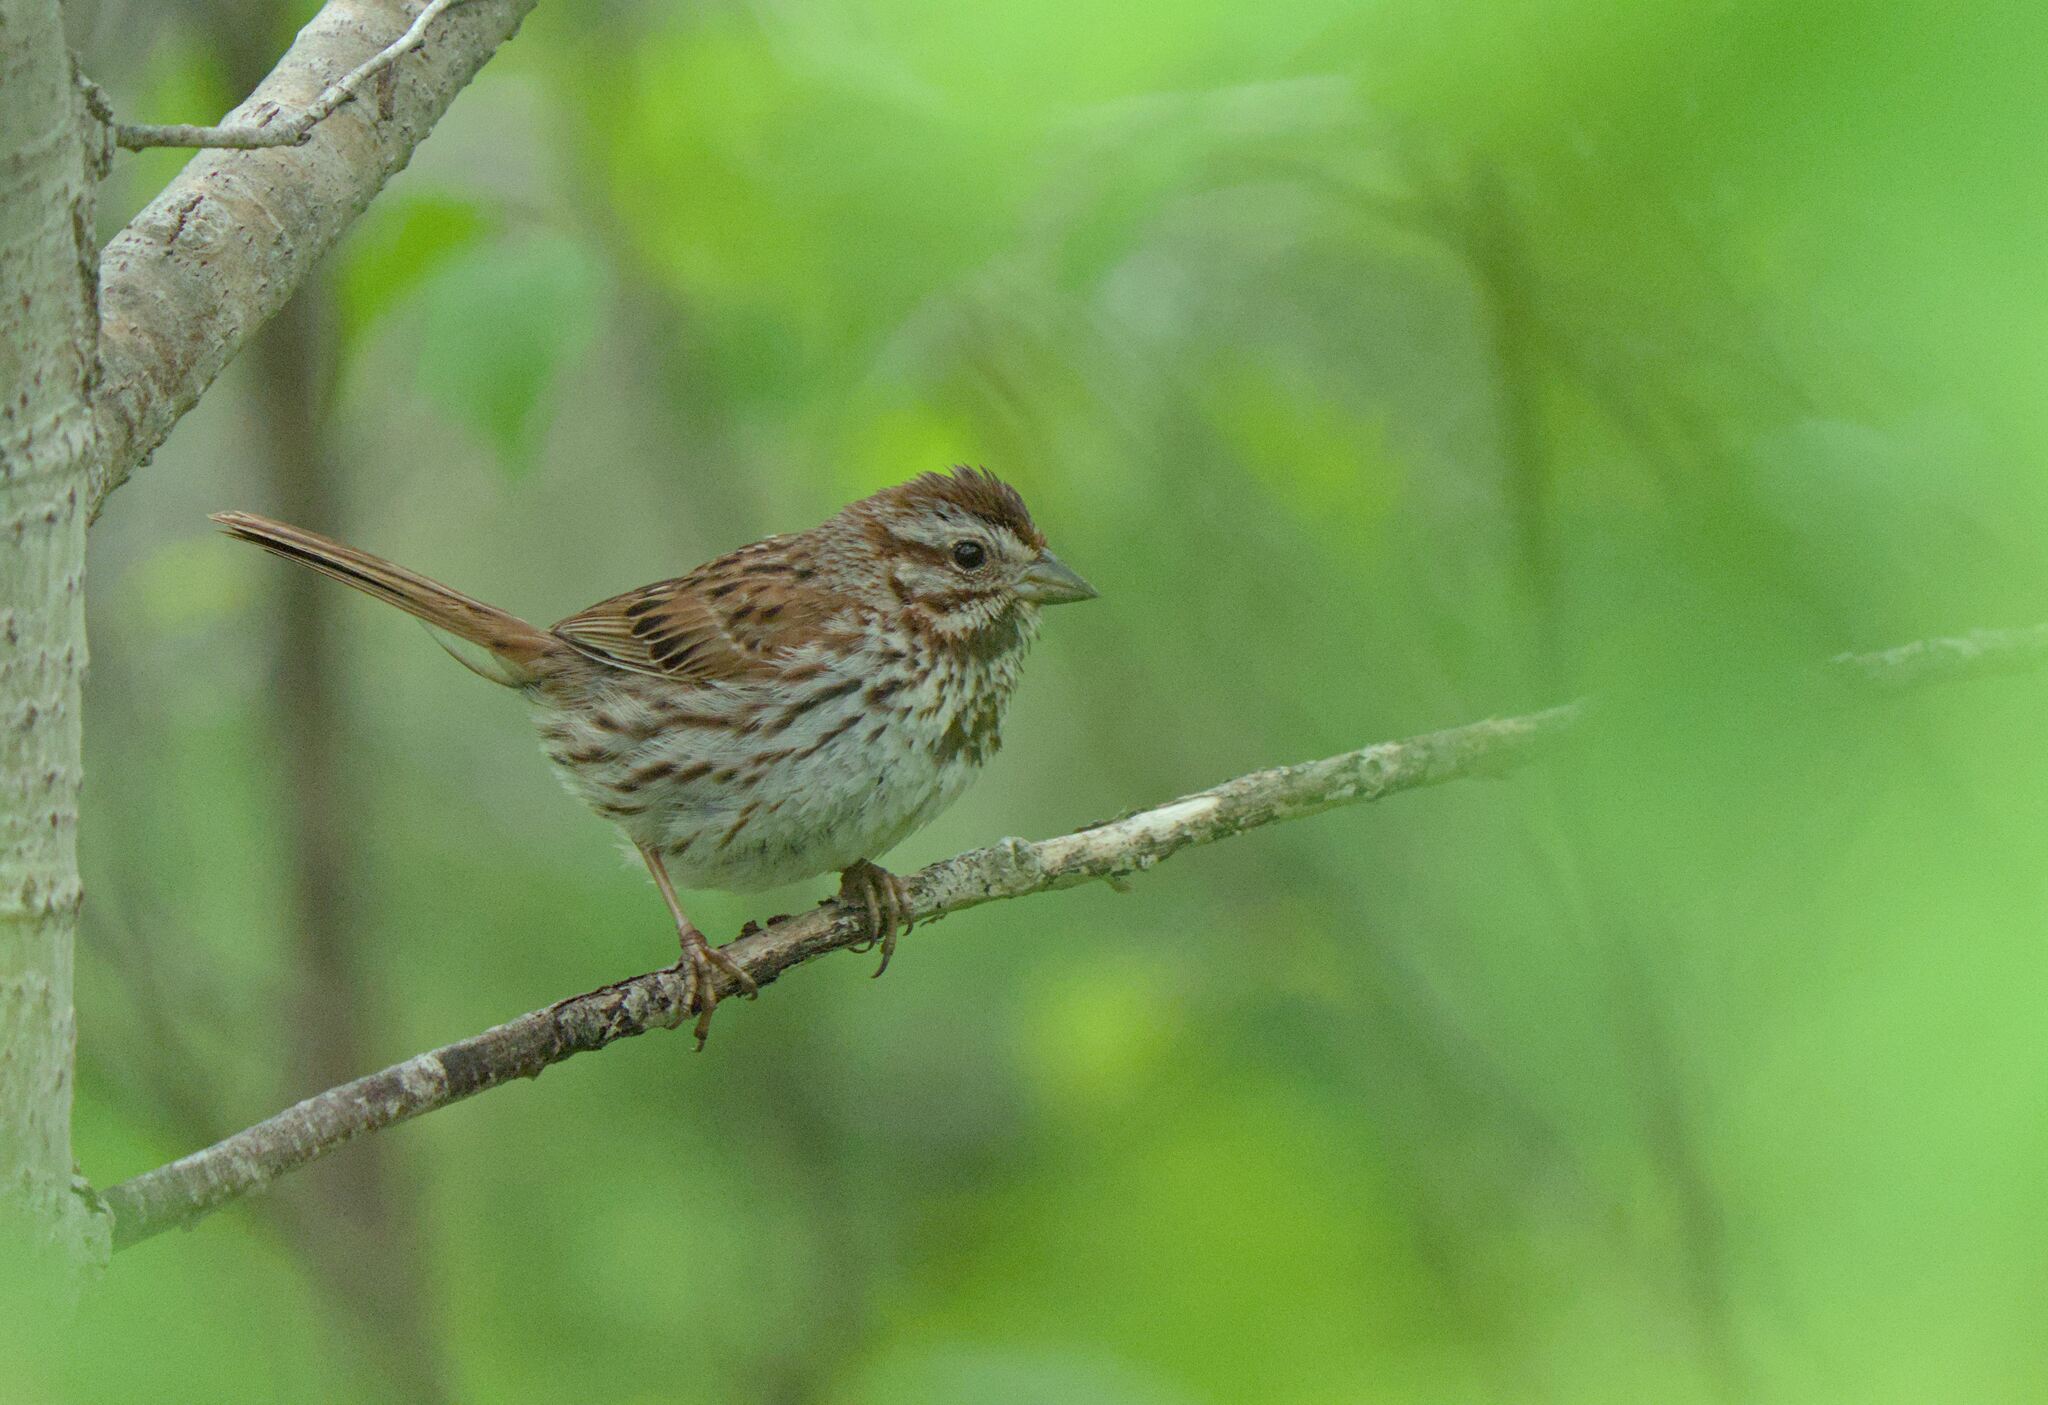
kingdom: Animalia
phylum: Chordata
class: Aves
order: Passeriformes
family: Passerellidae
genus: Melospiza
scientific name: Melospiza melodia
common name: Song sparrow
